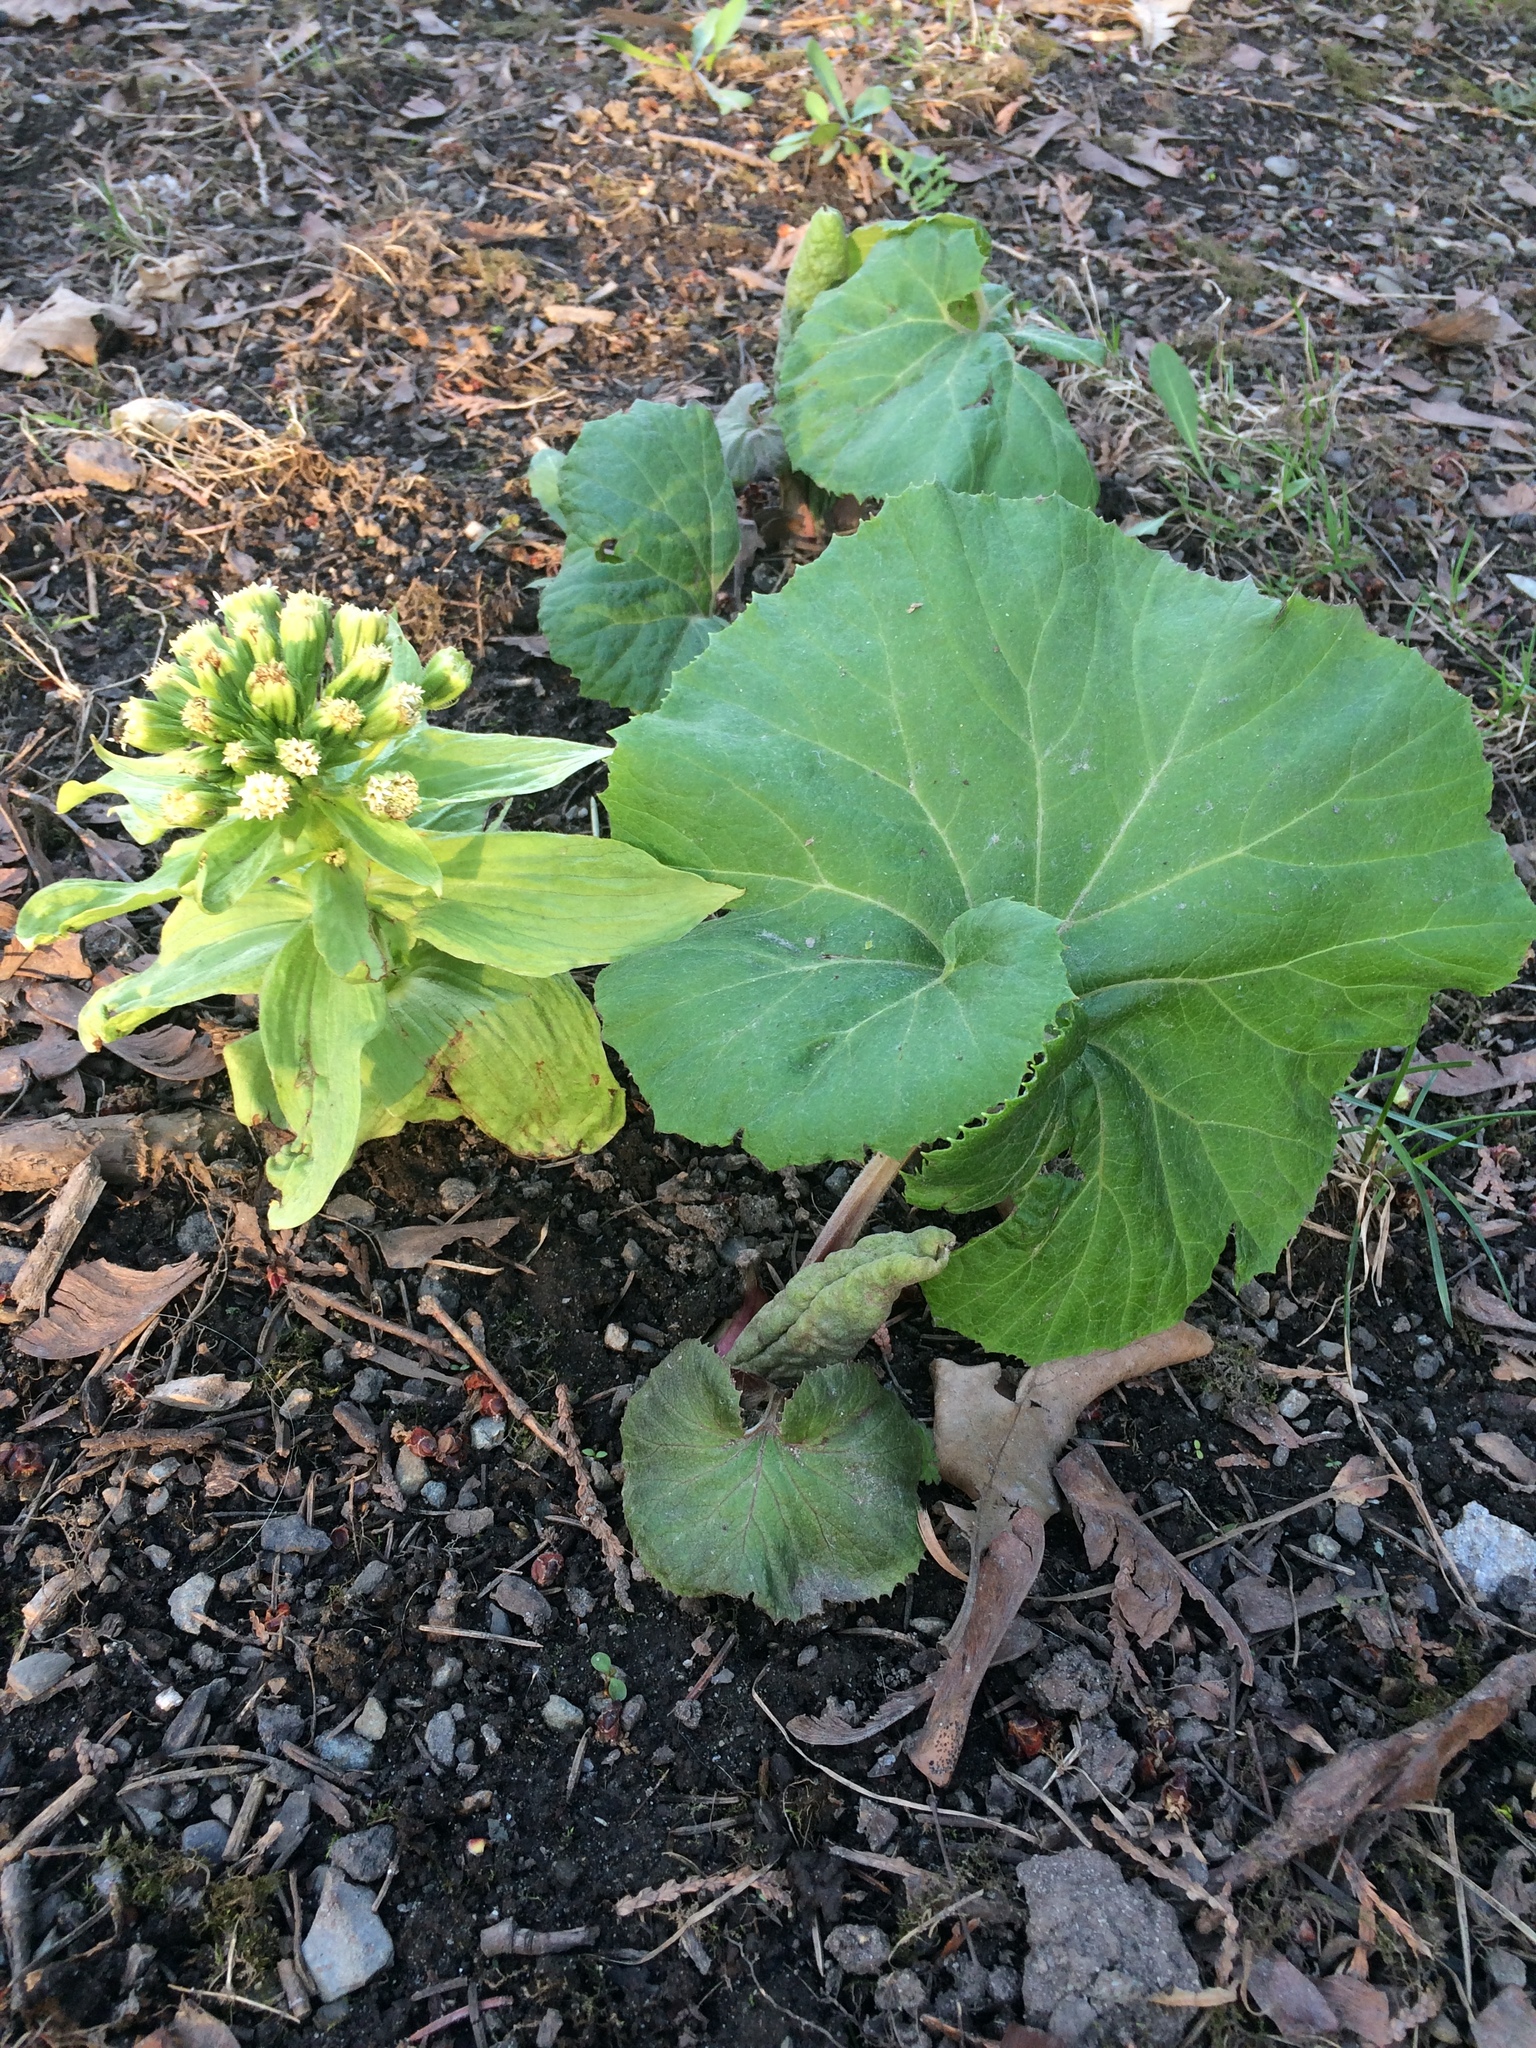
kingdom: Plantae
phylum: Tracheophyta
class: Magnoliopsida
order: Asterales
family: Asteraceae
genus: Petasites
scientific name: Petasites japonicus
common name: Giant butterbur
